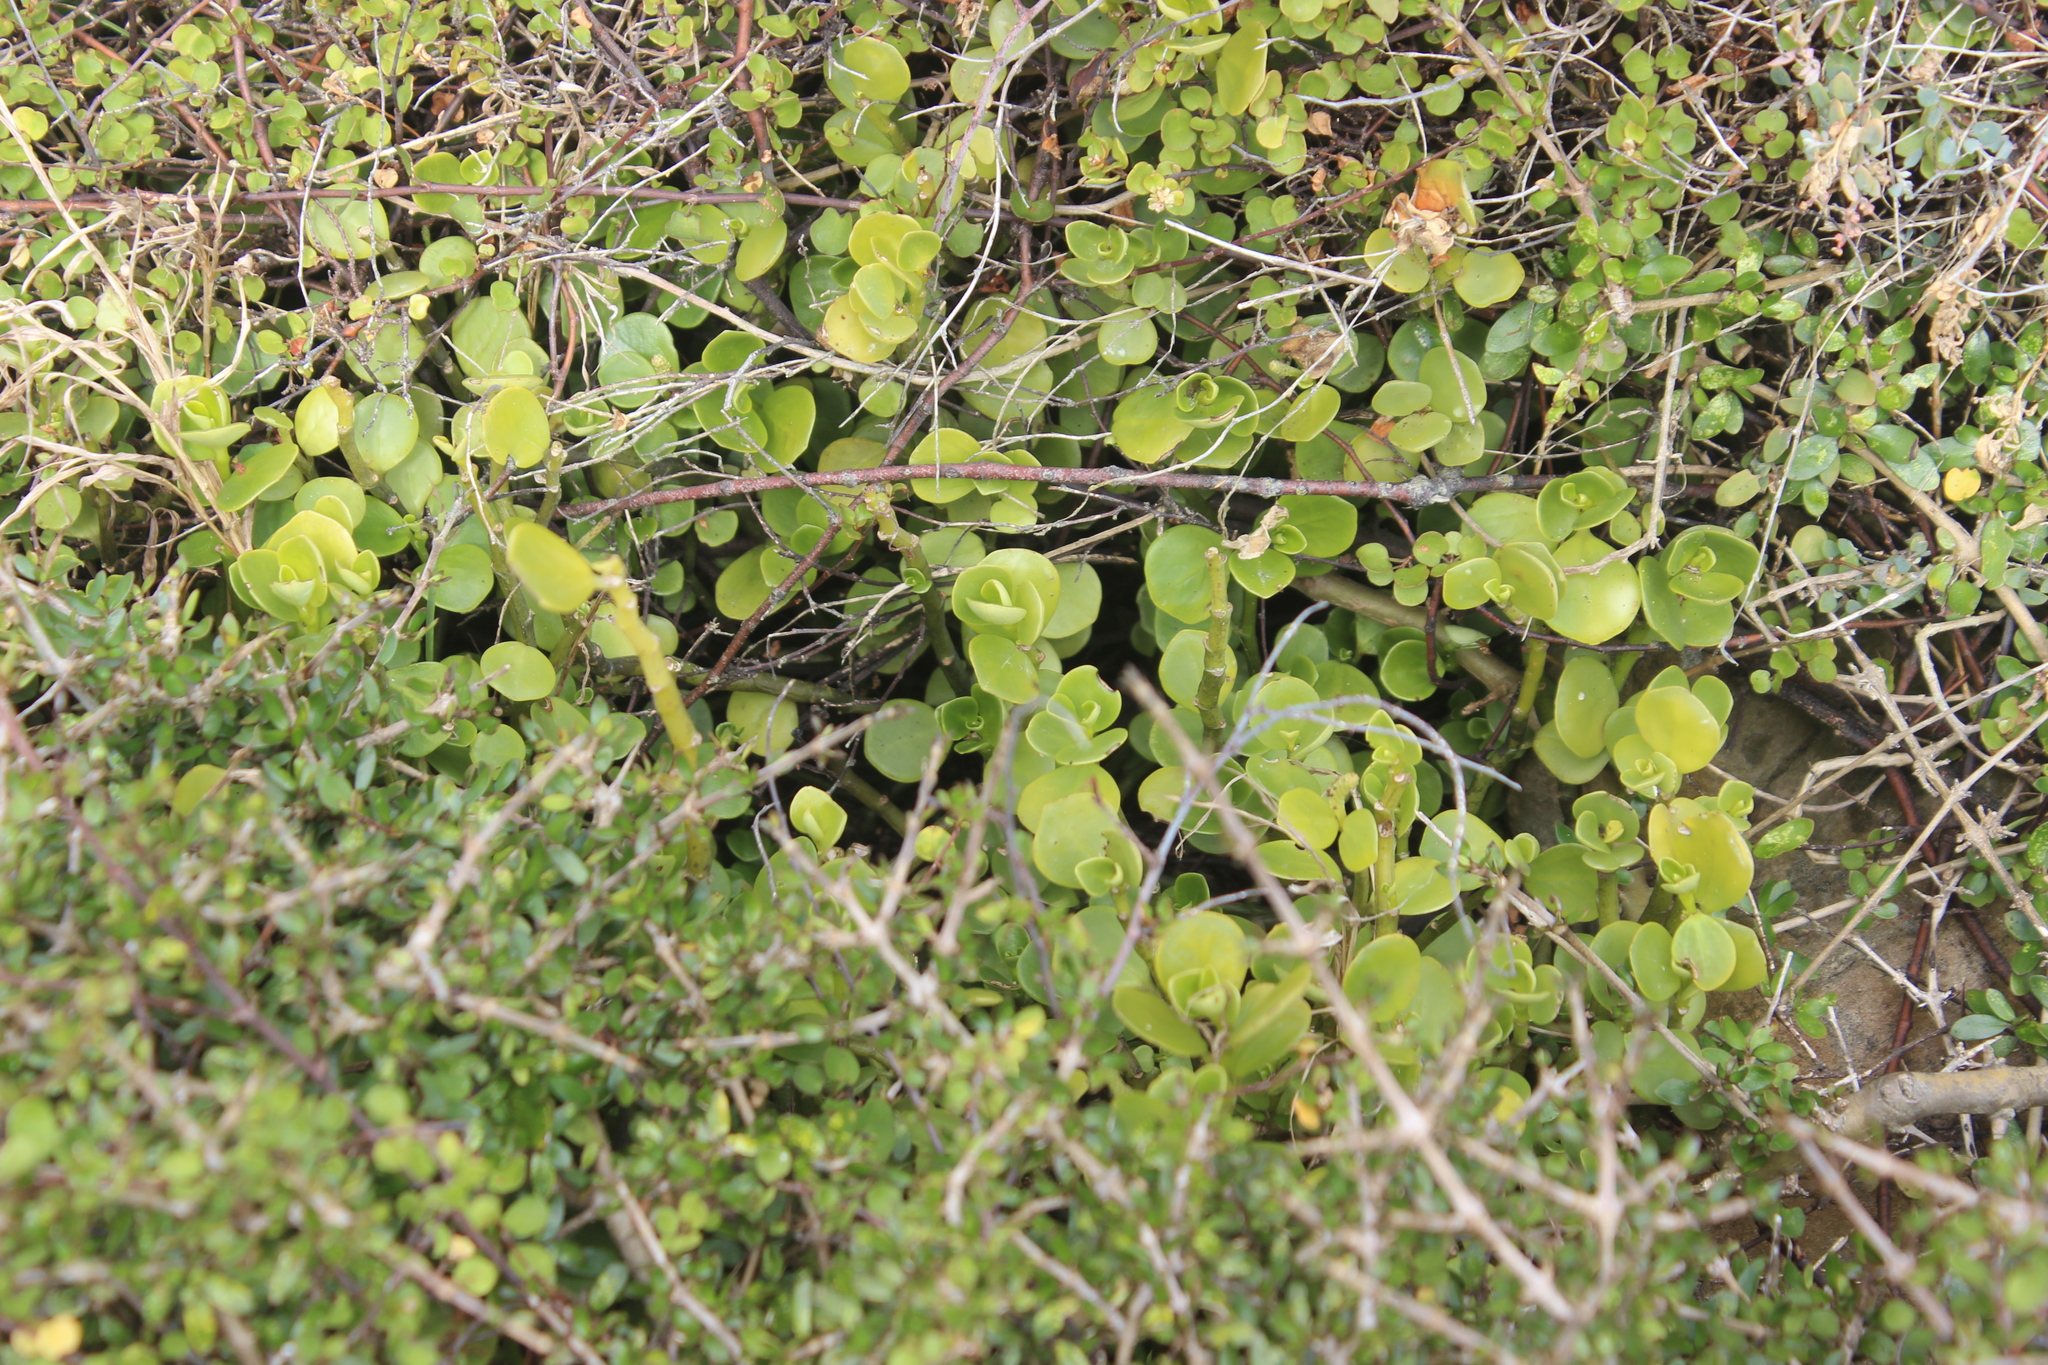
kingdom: Plantae
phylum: Tracheophyta
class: Magnoliopsida
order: Piperales
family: Piperaceae
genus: Peperomia
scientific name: Peperomia urvilleana
